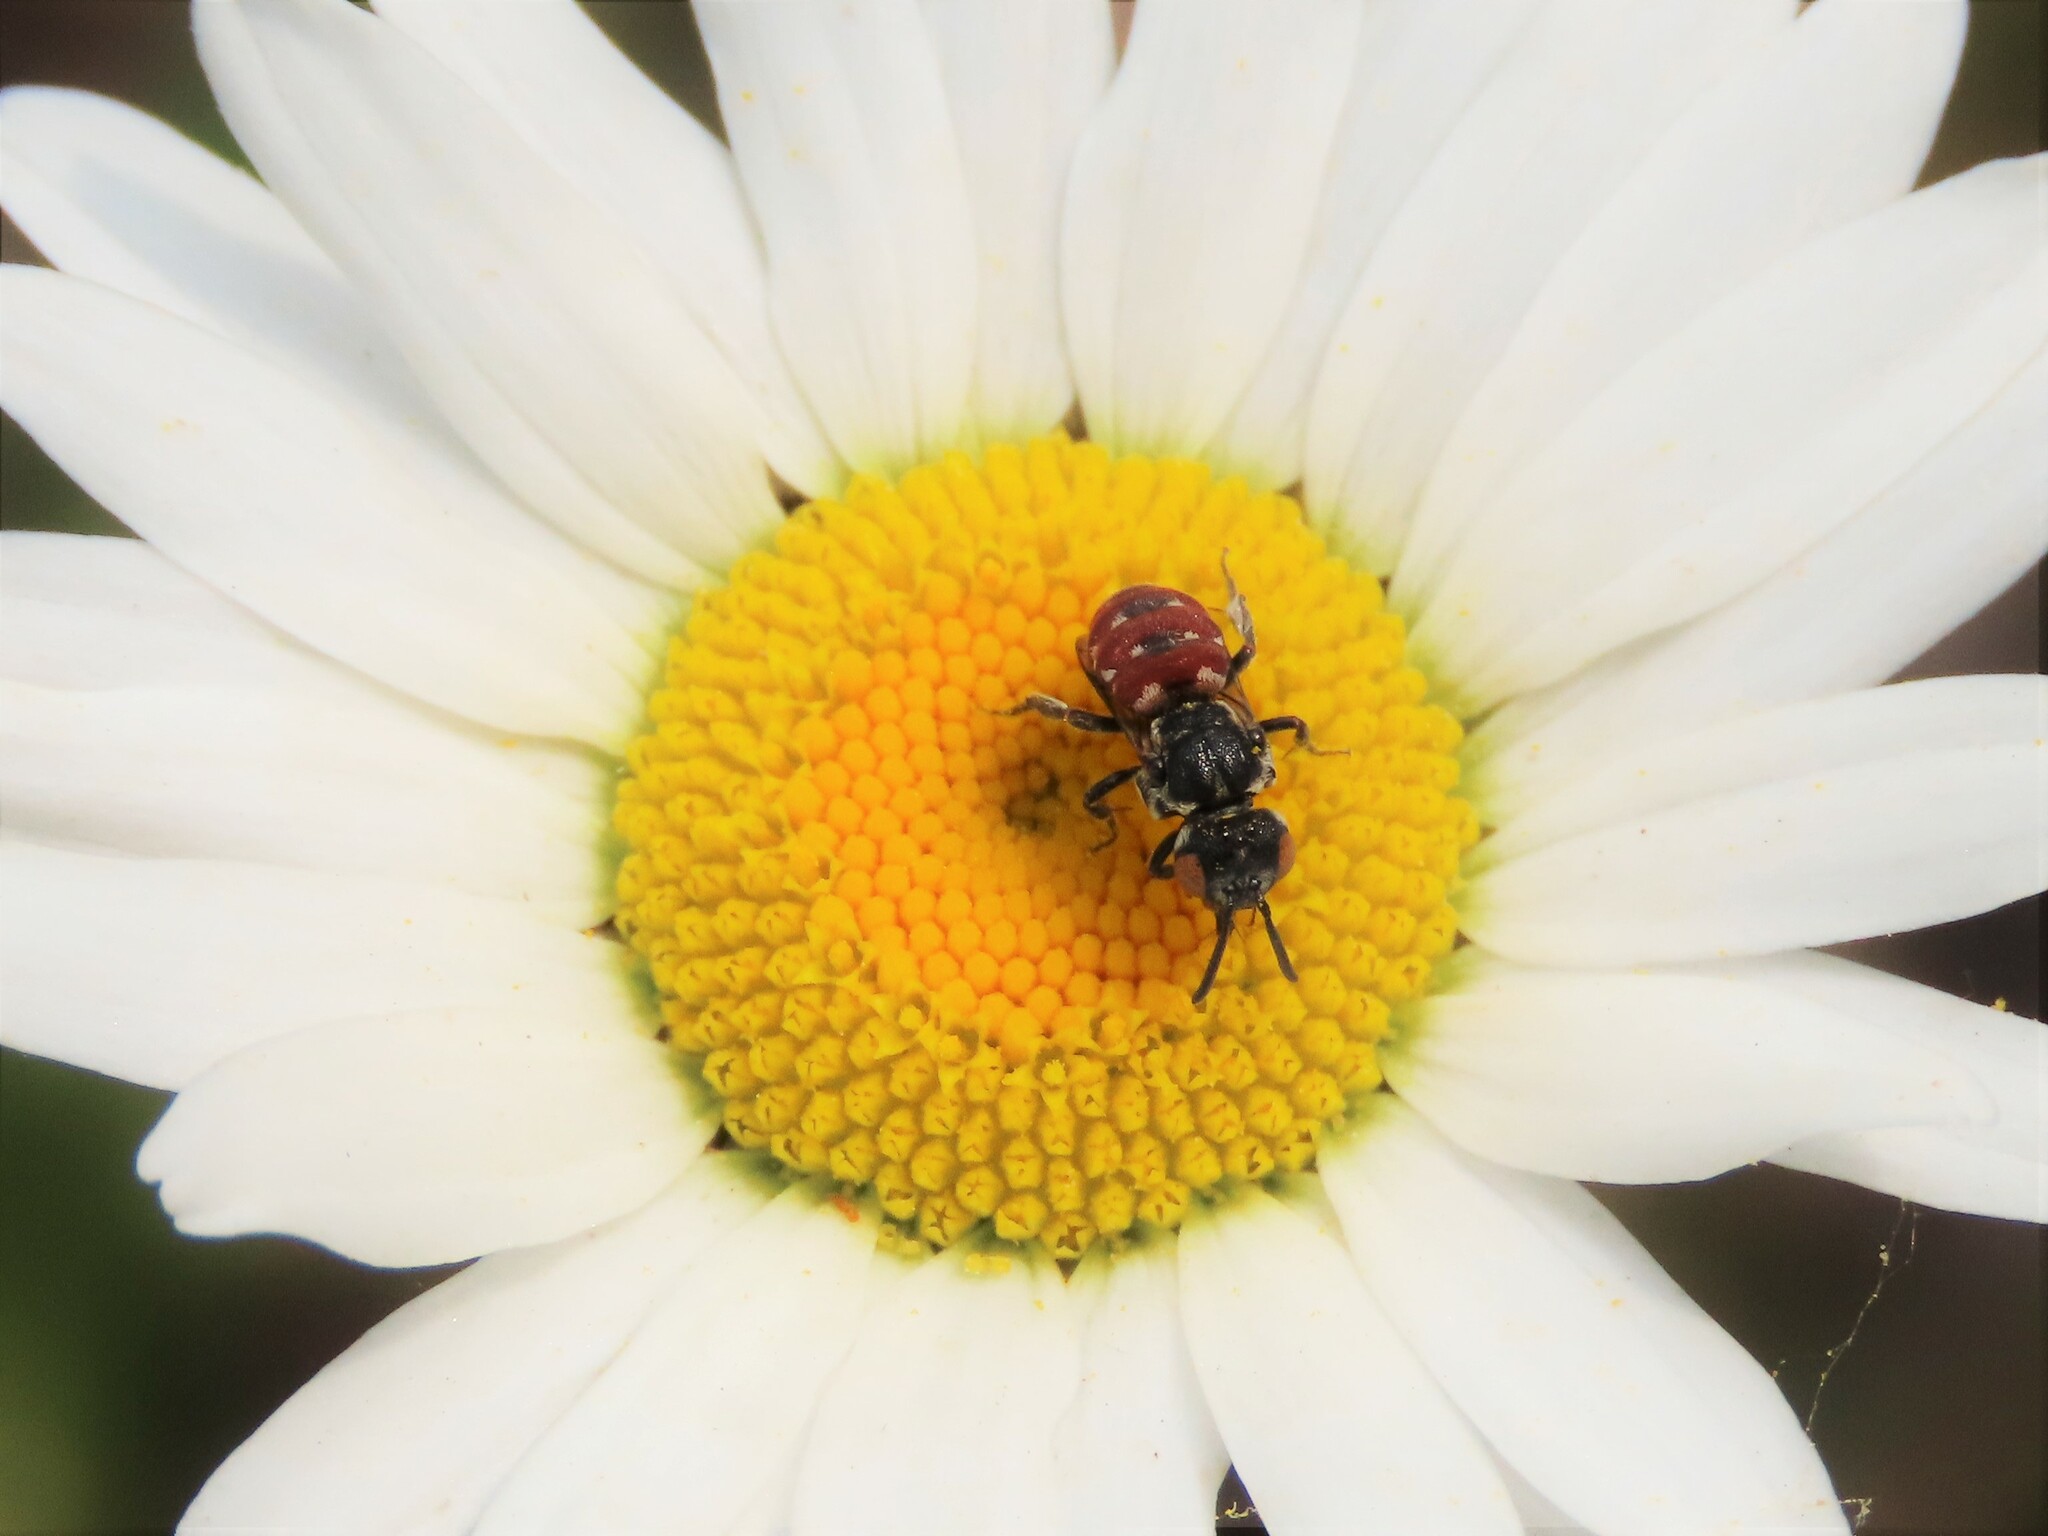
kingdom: Animalia
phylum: Arthropoda
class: Insecta
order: Hymenoptera
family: Apidae
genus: Holcopasites
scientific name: Holcopasites calliopsidis
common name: Calliopsis cuckoo nomad bee
